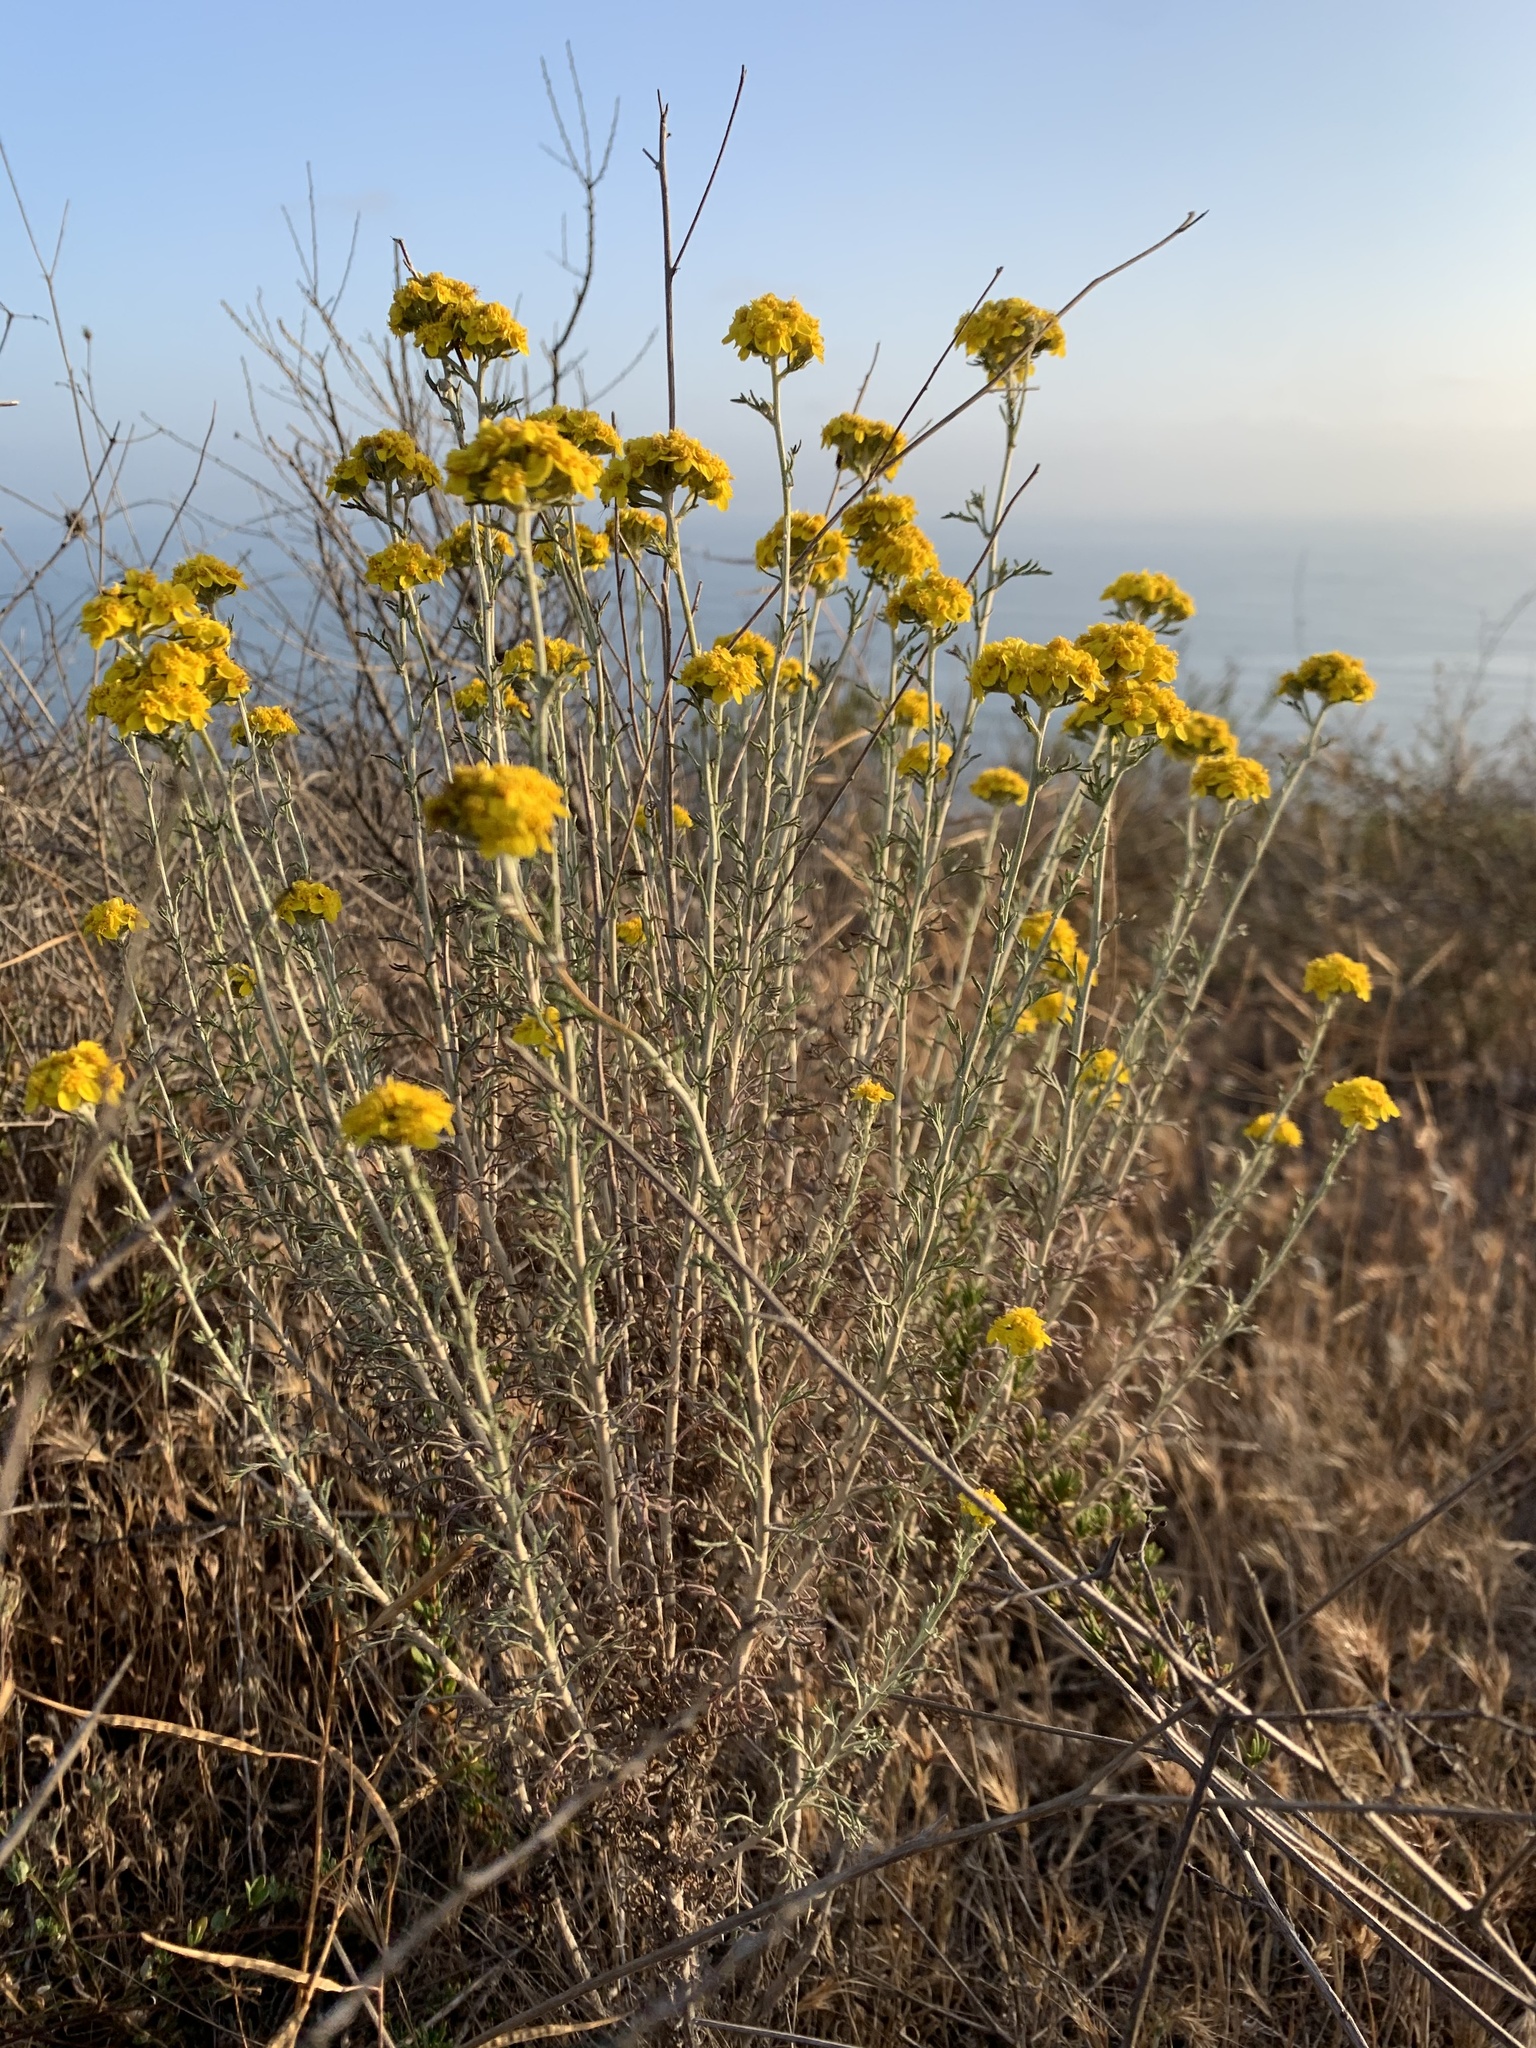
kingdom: Plantae
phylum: Tracheophyta
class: Magnoliopsida
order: Asterales
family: Asteraceae
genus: Eriophyllum
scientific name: Eriophyllum confertiflorum
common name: Golden-yarrow
